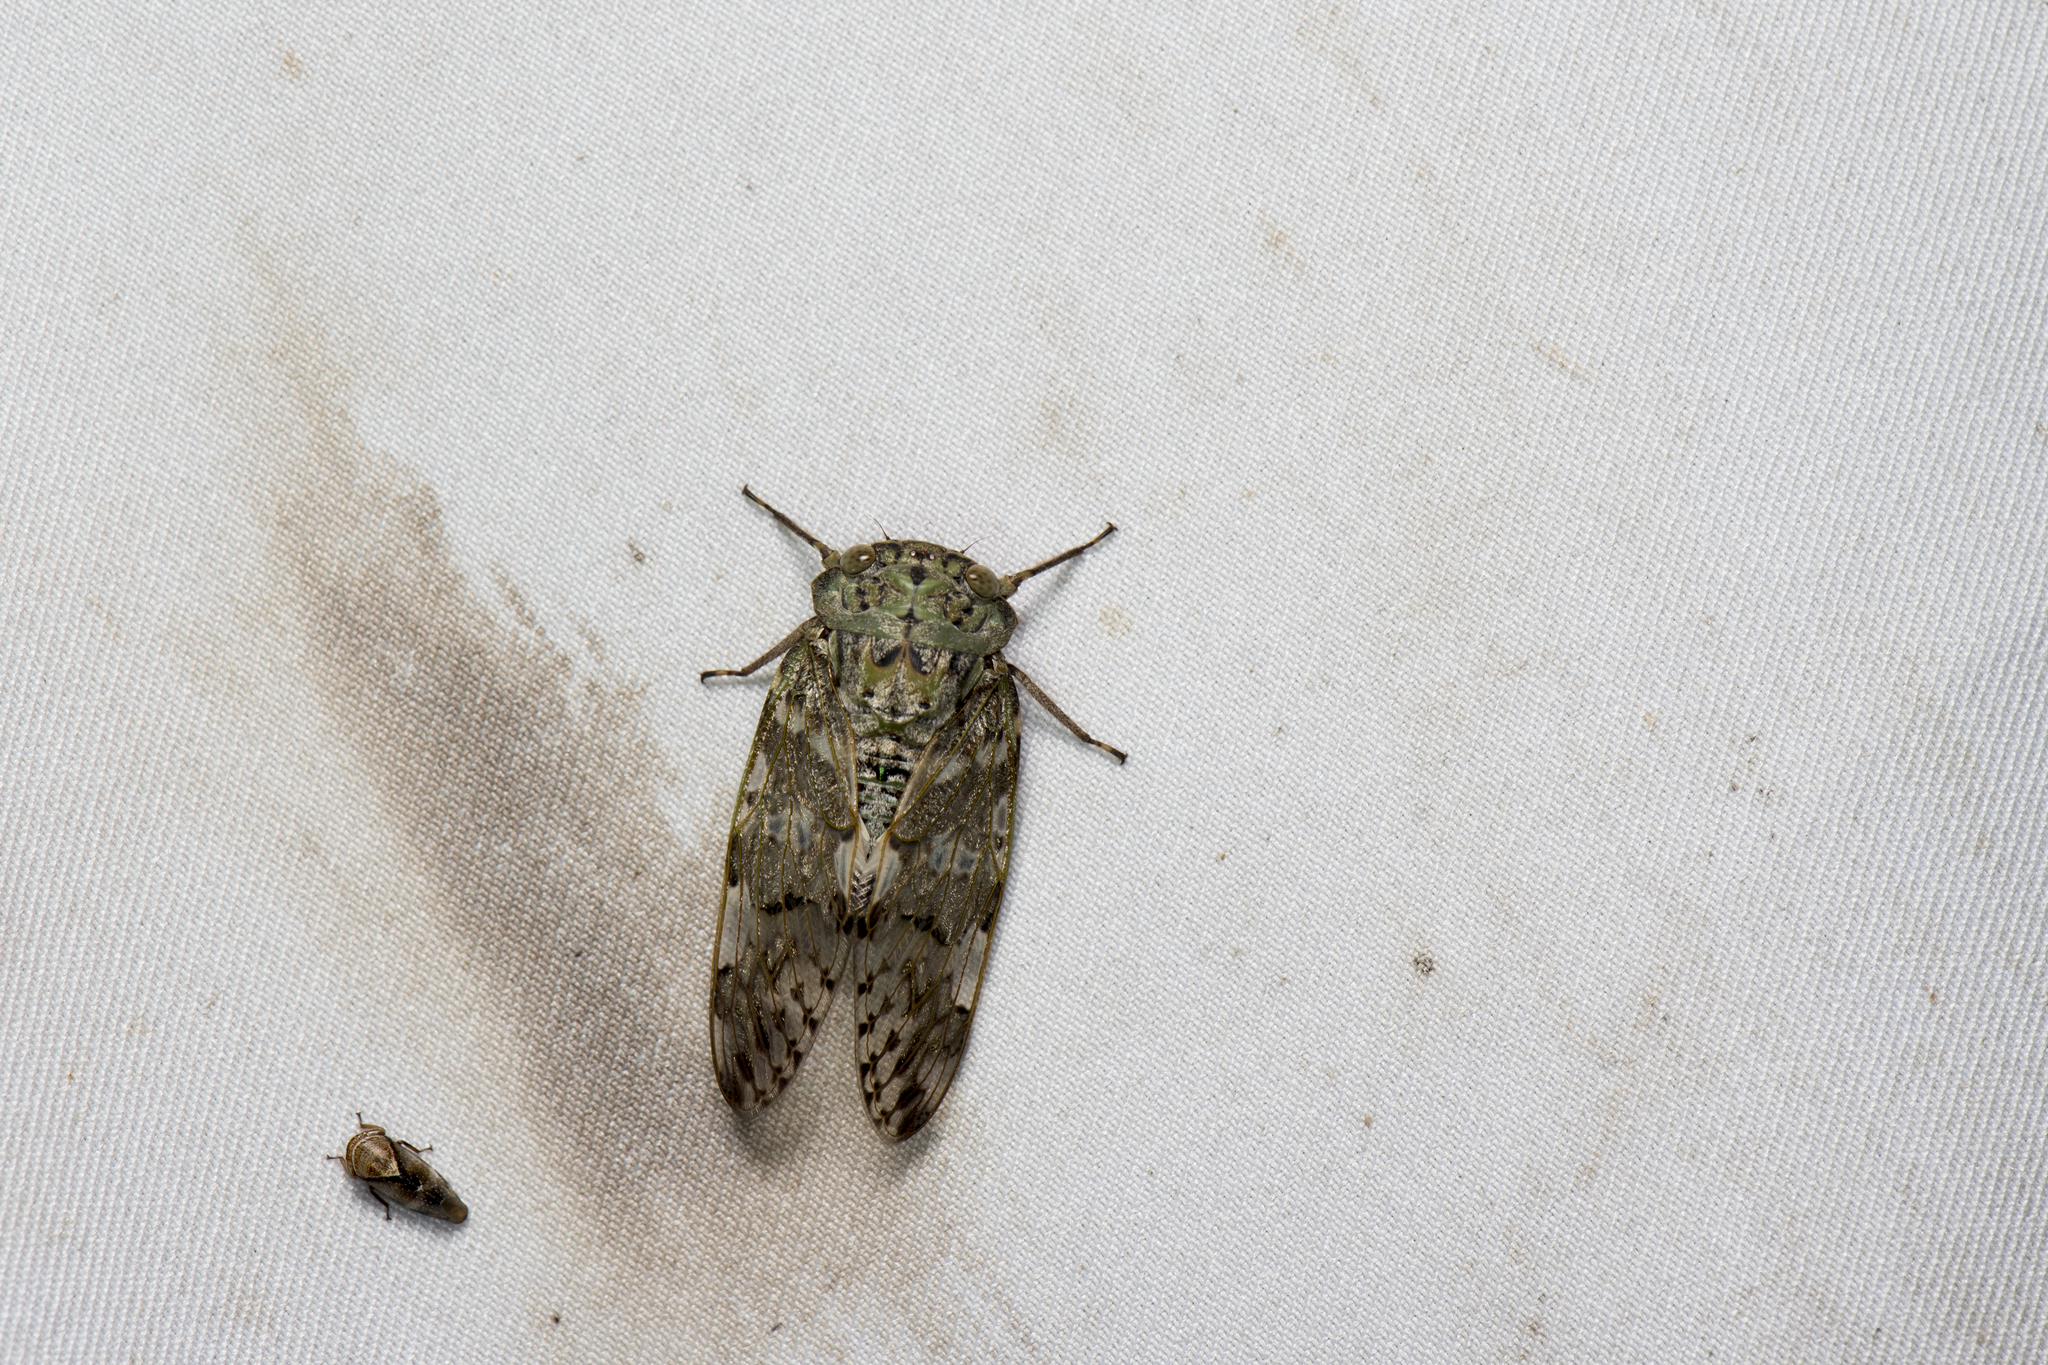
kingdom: Animalia
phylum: Arthropoda
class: Insecta
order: Hemiptera
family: Cicadidae
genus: Platypleura
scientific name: Platypleura takasagona
